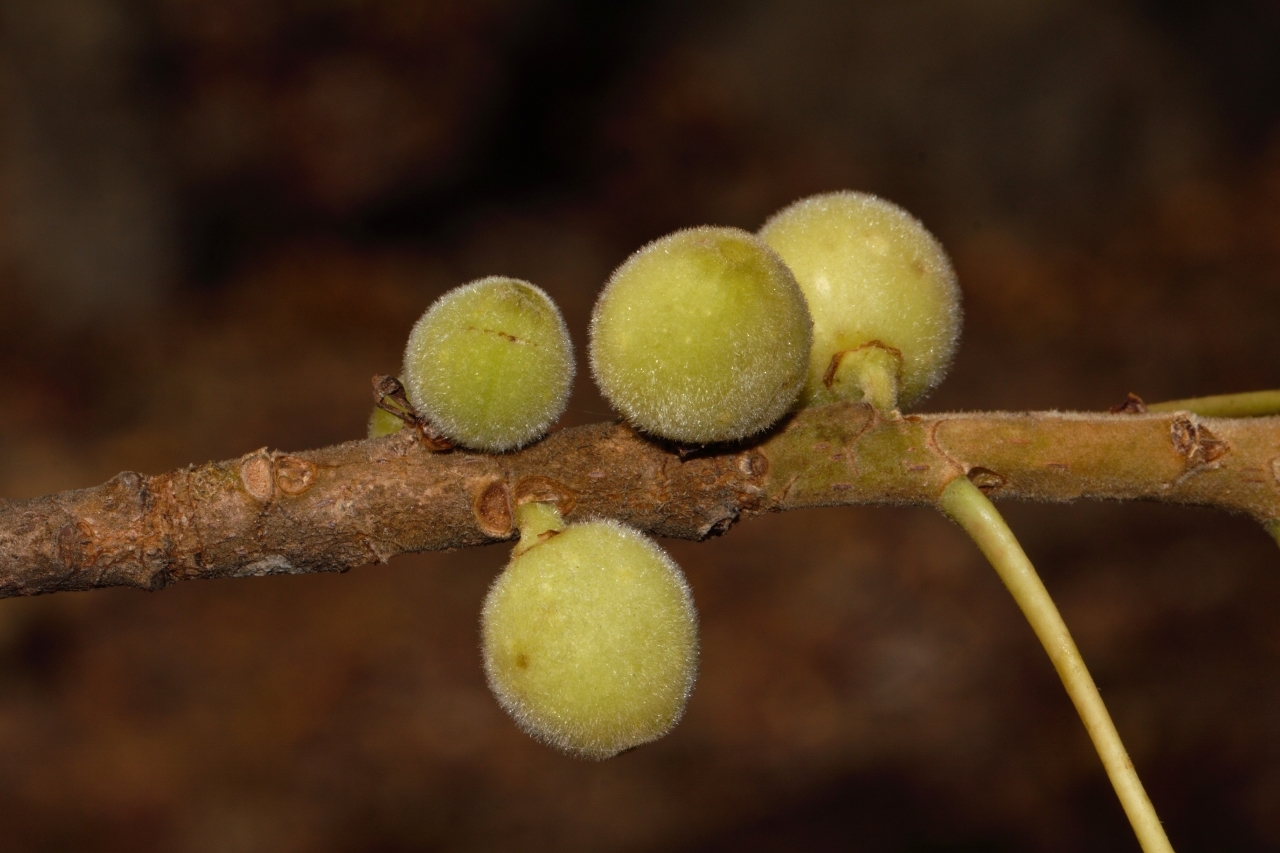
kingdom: Plantae
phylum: Tracheophyta
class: Magnoliopsida
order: Rosales
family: Moraceae
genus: Ficus
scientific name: Ficus thonningii
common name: Fig
